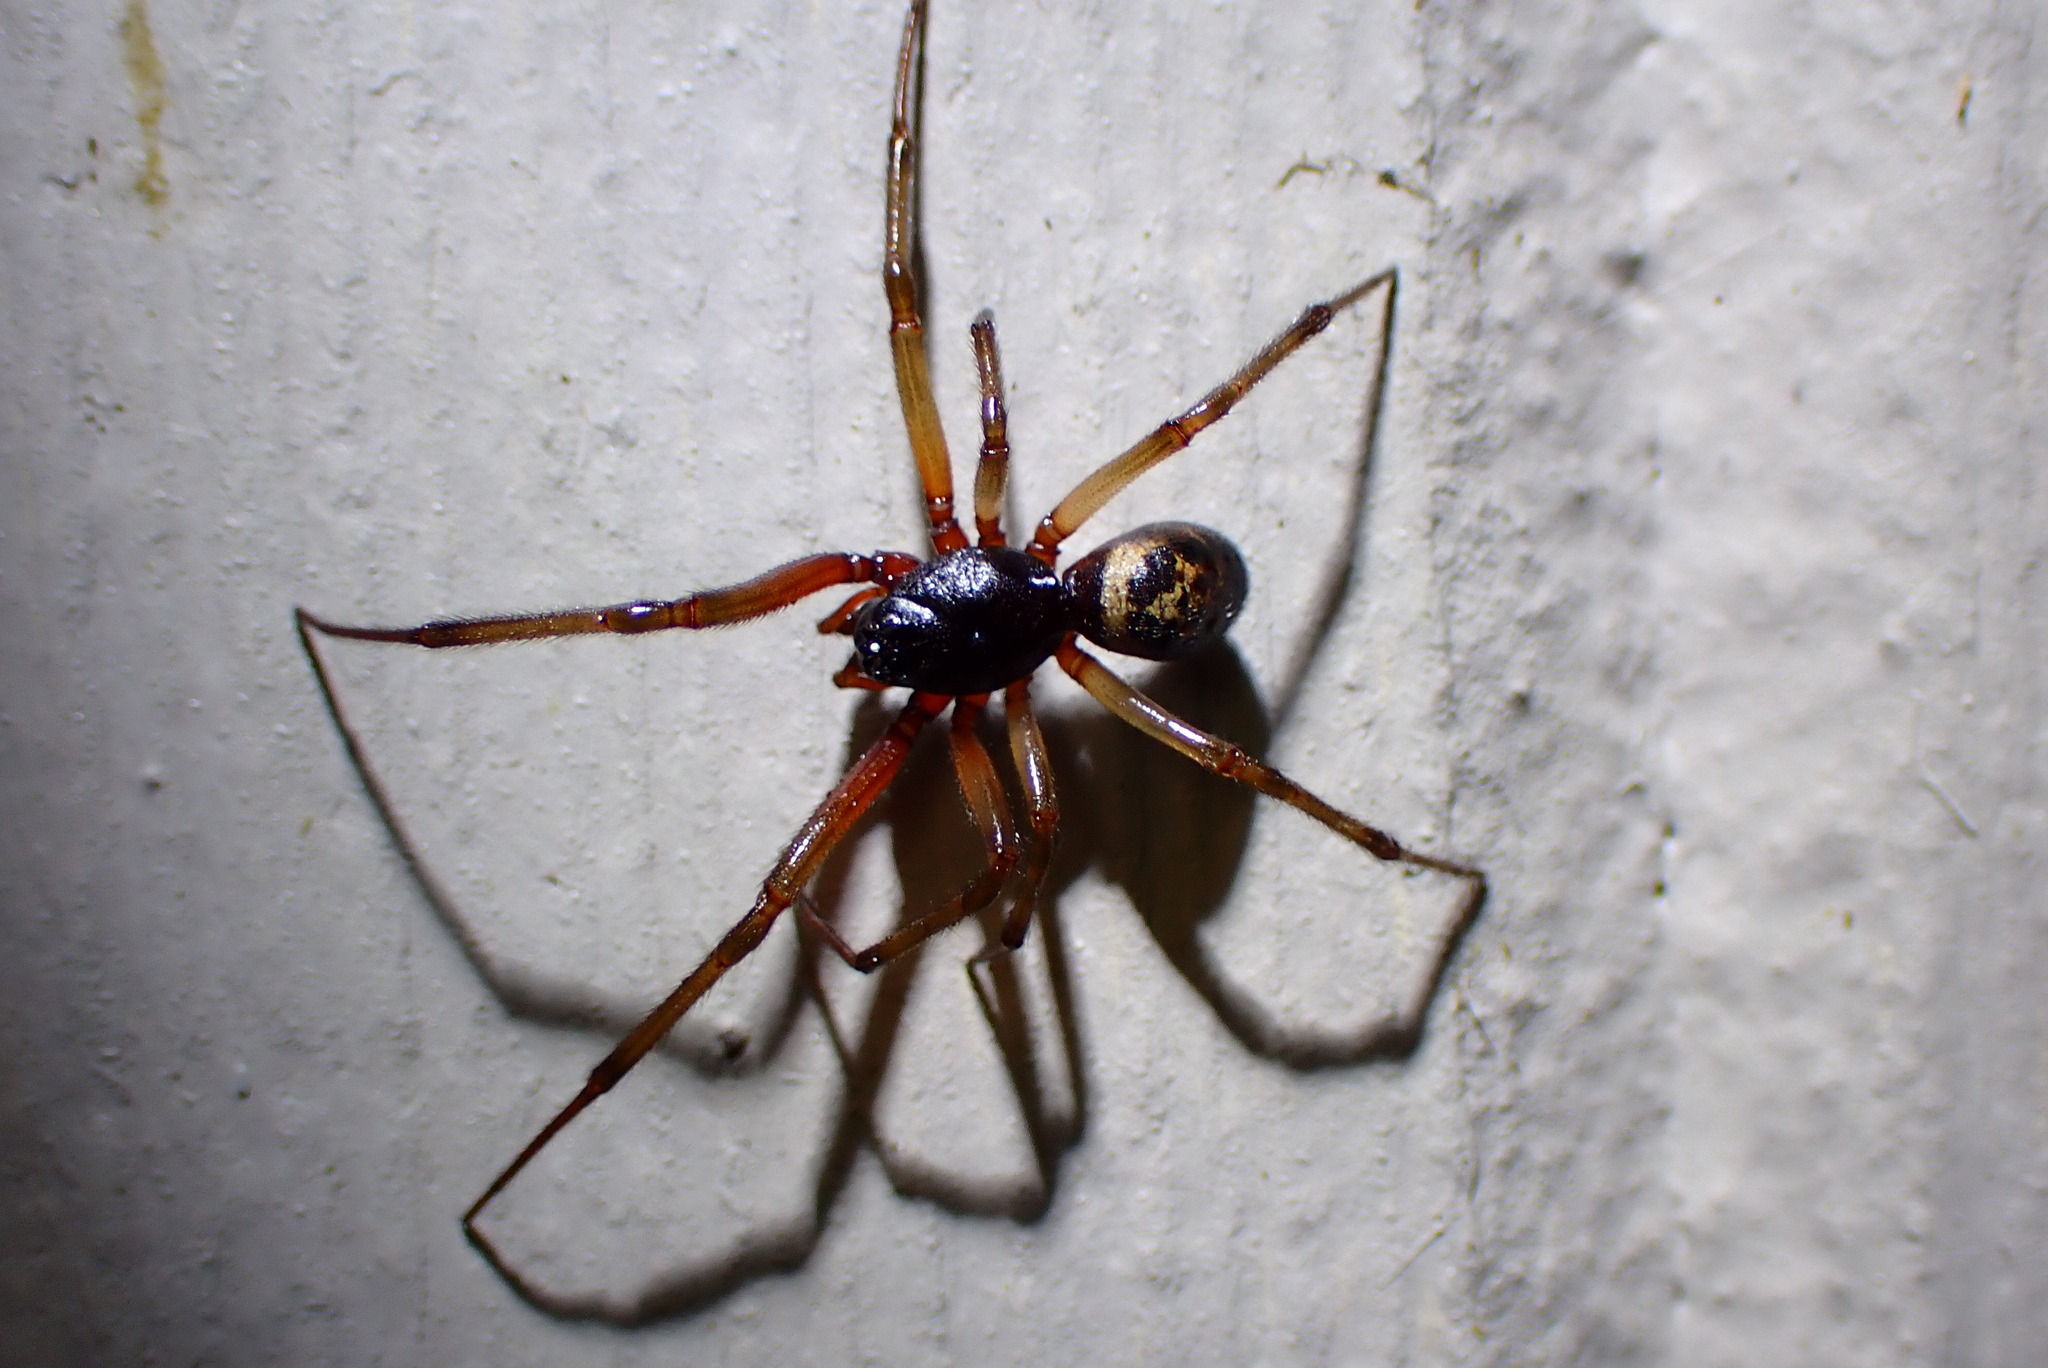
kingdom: Animalia
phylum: Arthropoda
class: Arachnida
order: Araneae
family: Theridiidae
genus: Steatoda
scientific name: Steatoda nobilis
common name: Cobweb weaver
